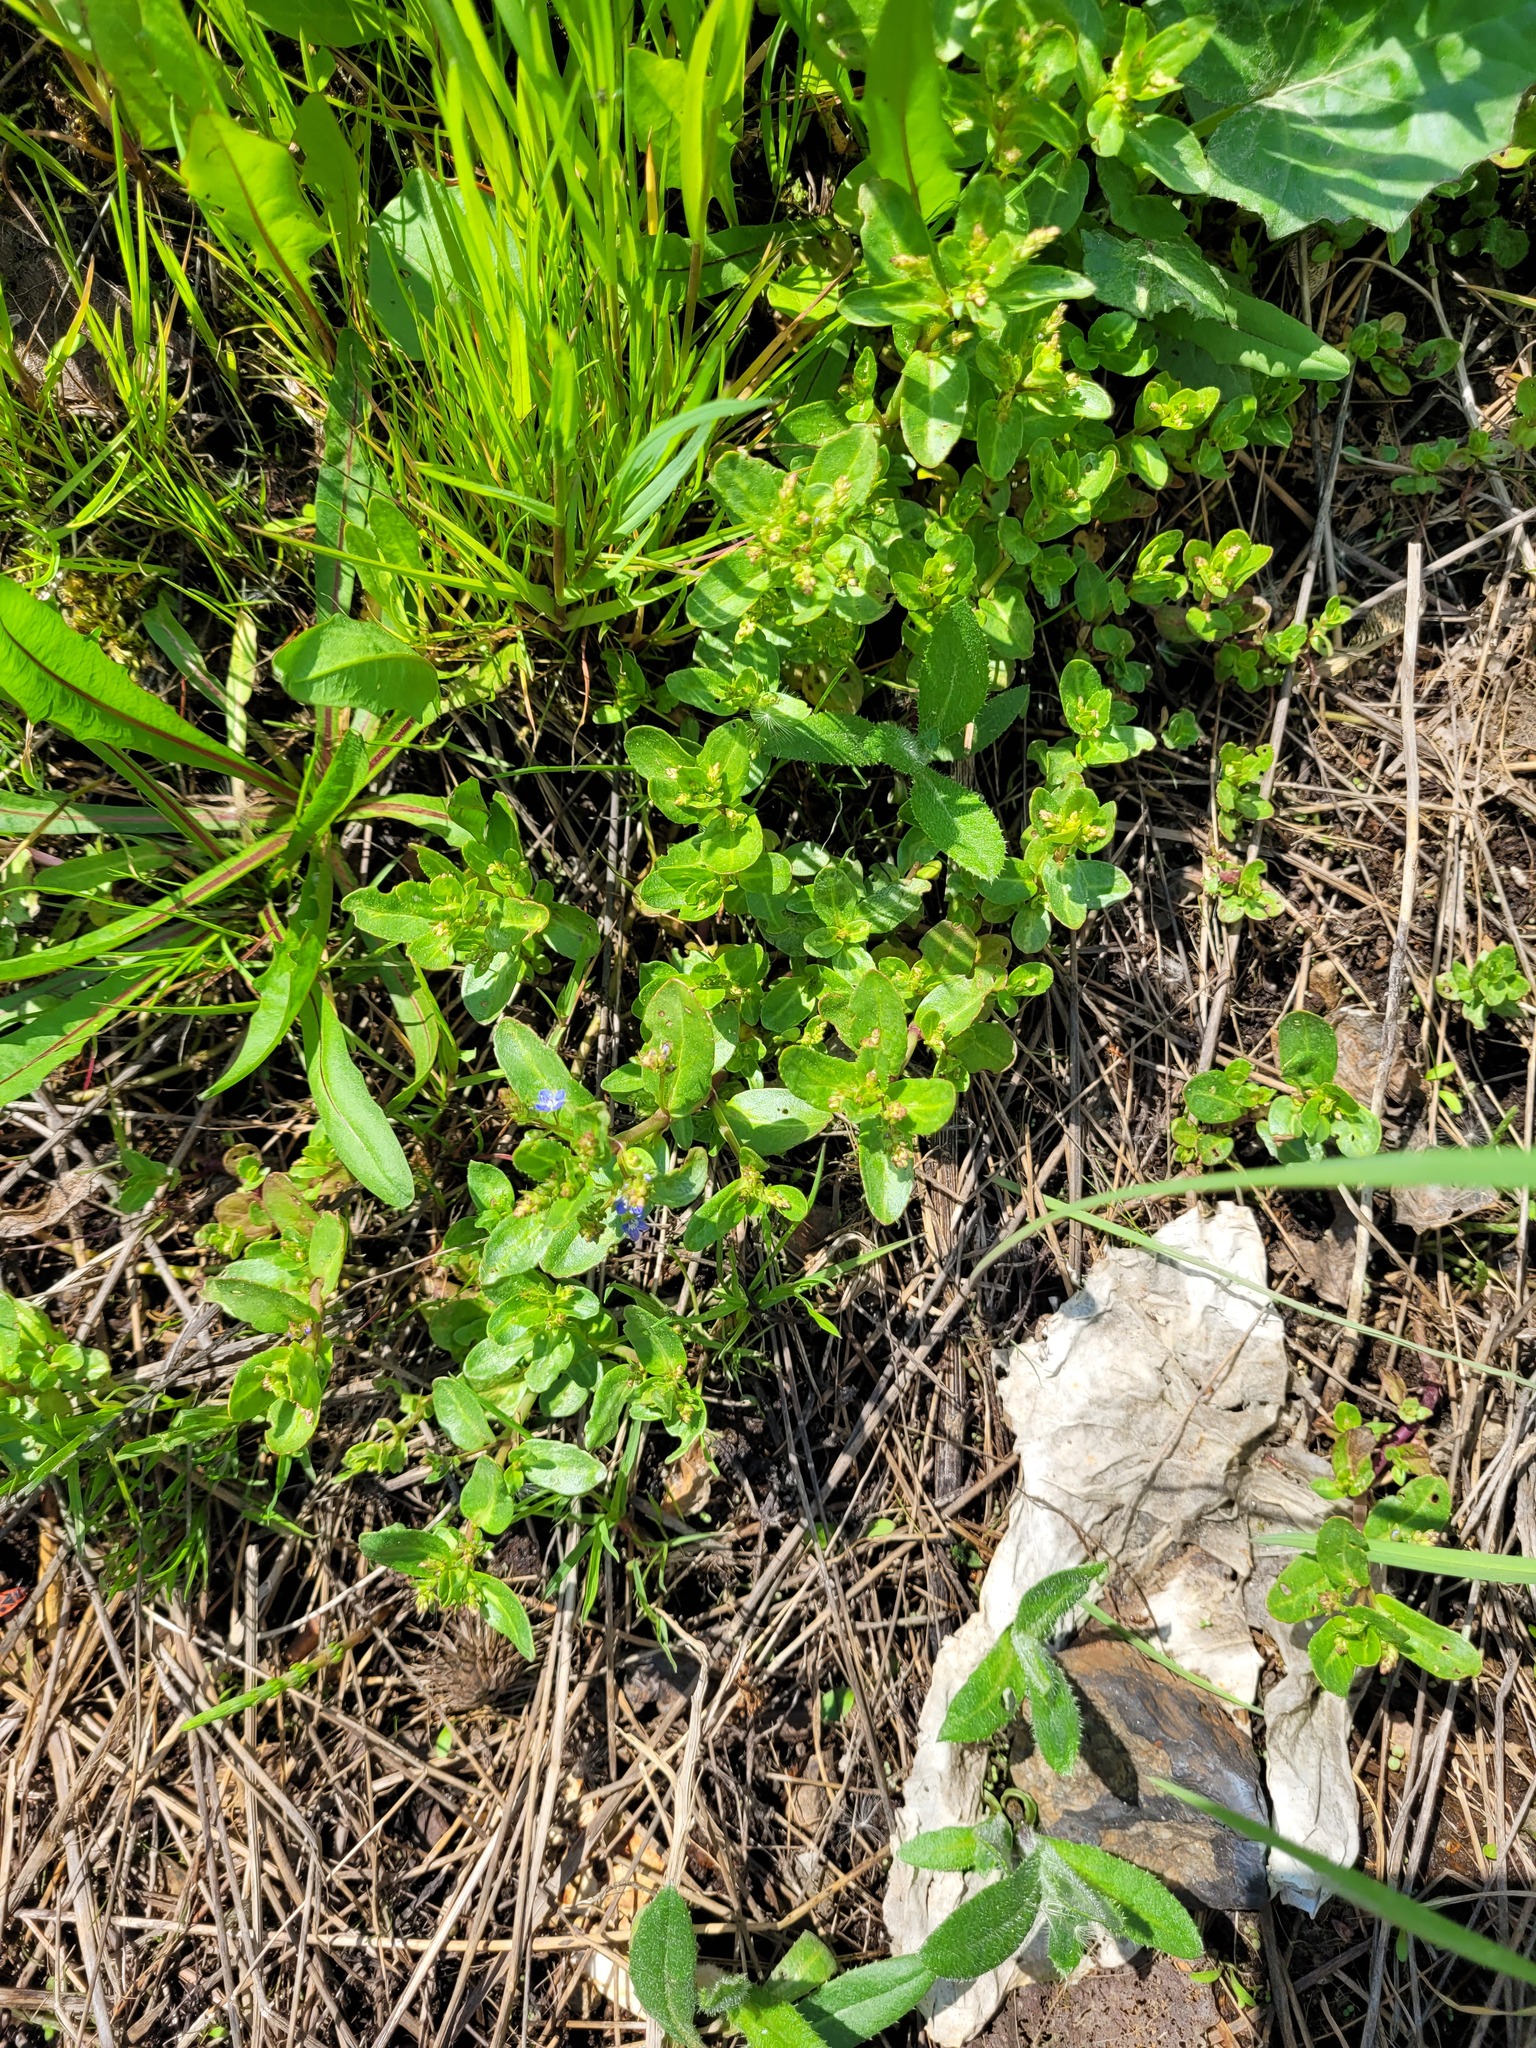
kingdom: Plantae
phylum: Tracheophyta
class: Magnoliopsida
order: Lamiales
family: Plantaginaceae
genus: Veronica
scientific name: Veronica beccabunga
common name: Brooklime
